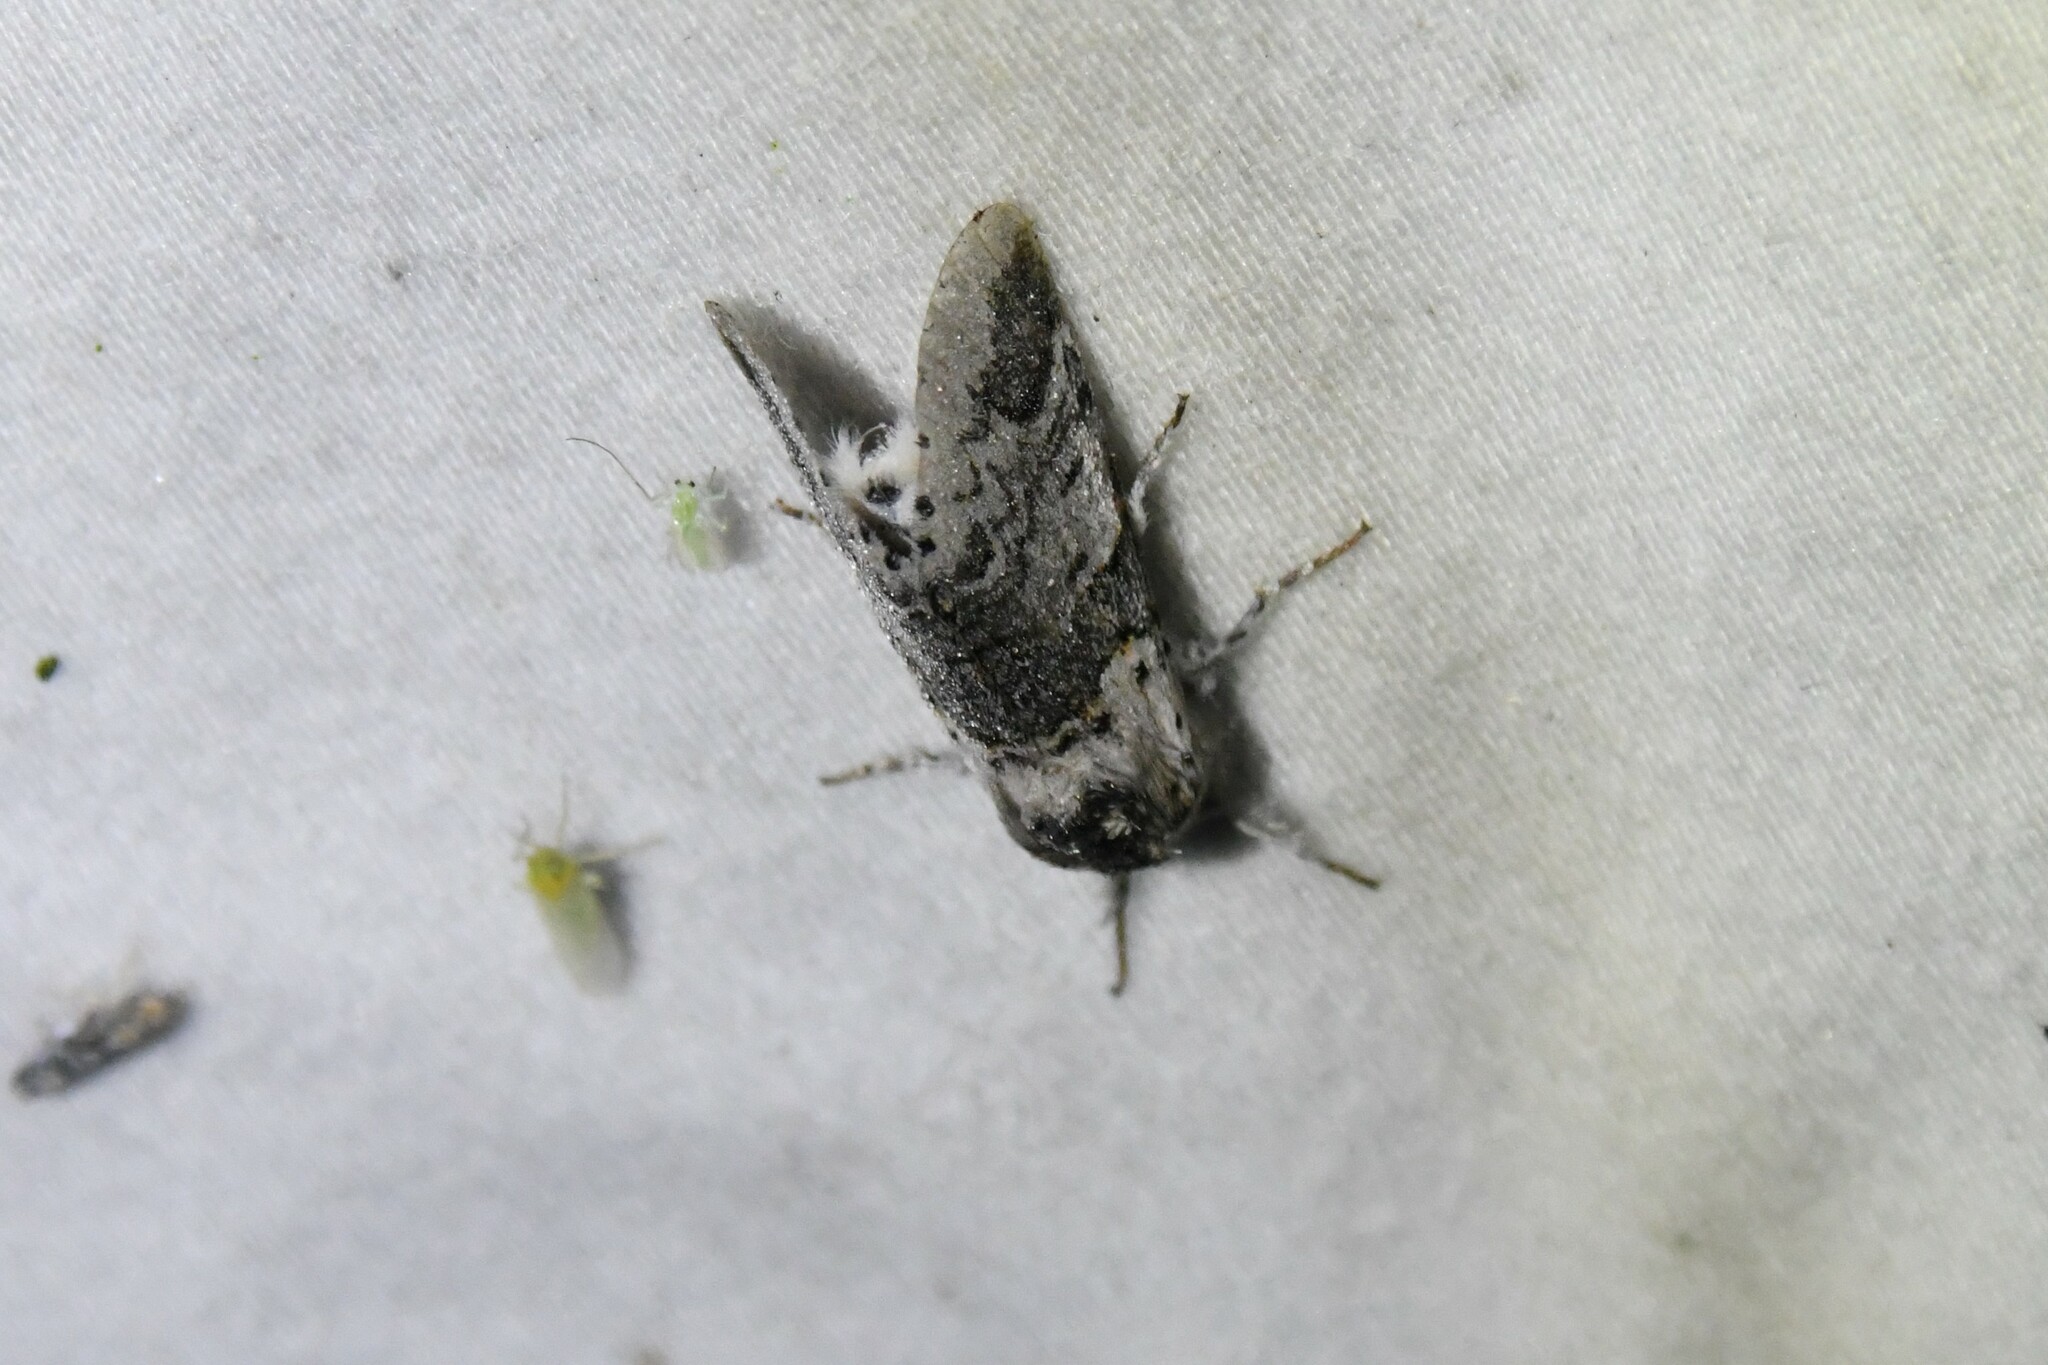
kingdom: Animalia
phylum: Arthropoda
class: Insecta
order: Lepidoptera
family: Notodontidae
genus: Furcula
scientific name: Furcula occidentalis
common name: Western furcula moth
